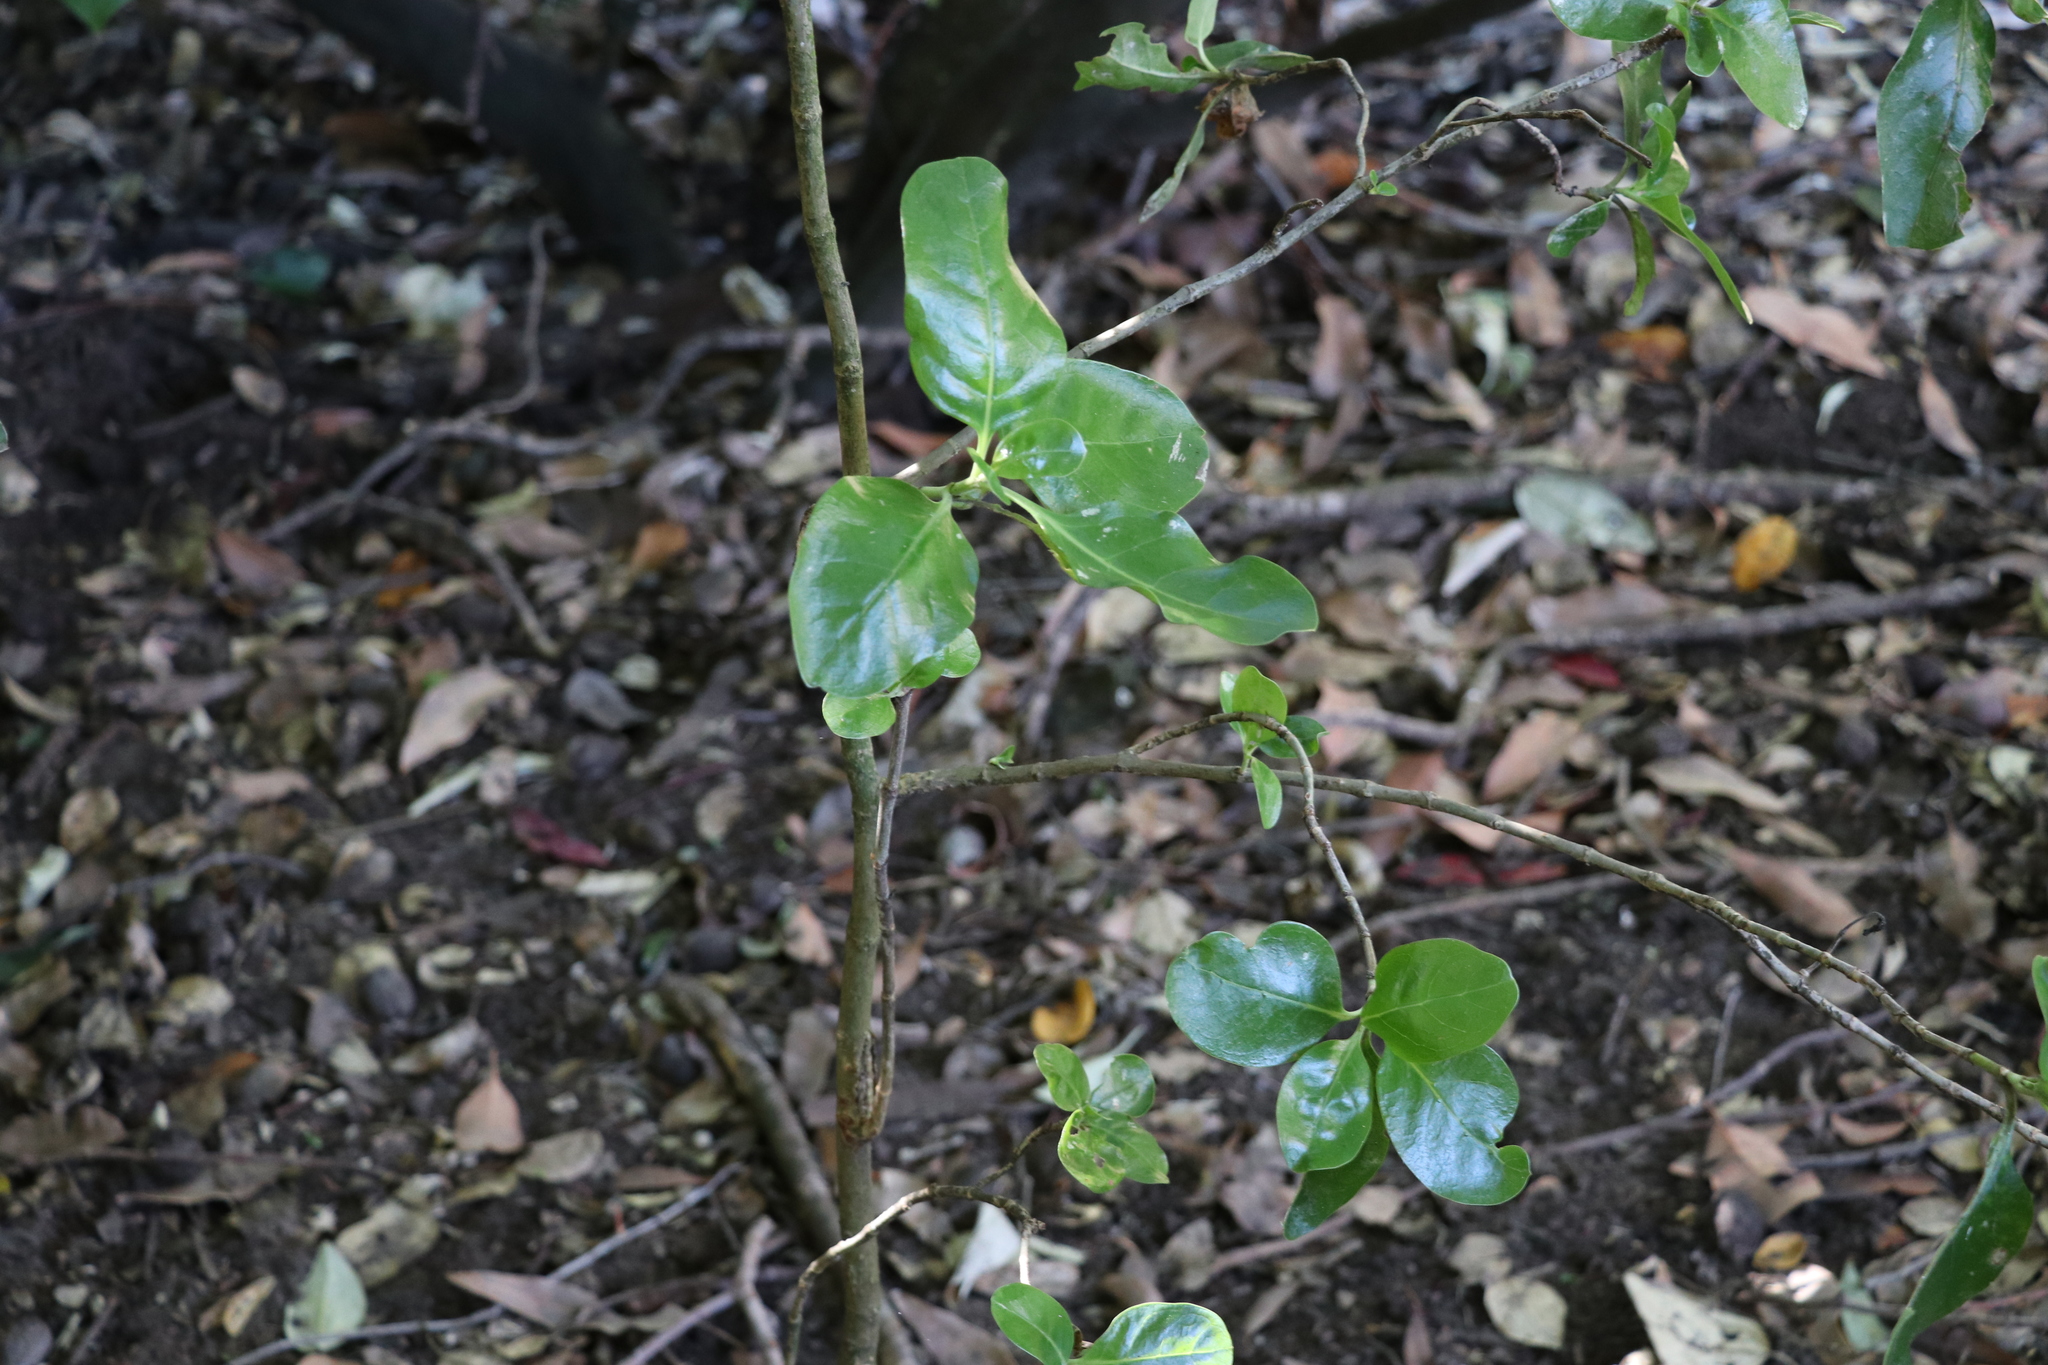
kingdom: Plantae
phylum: Tracheophyta
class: Magnoliopsida
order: Gentianales
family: Rubiaceae
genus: Coprosma
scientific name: Coprosma repens
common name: Tree bedstraw
